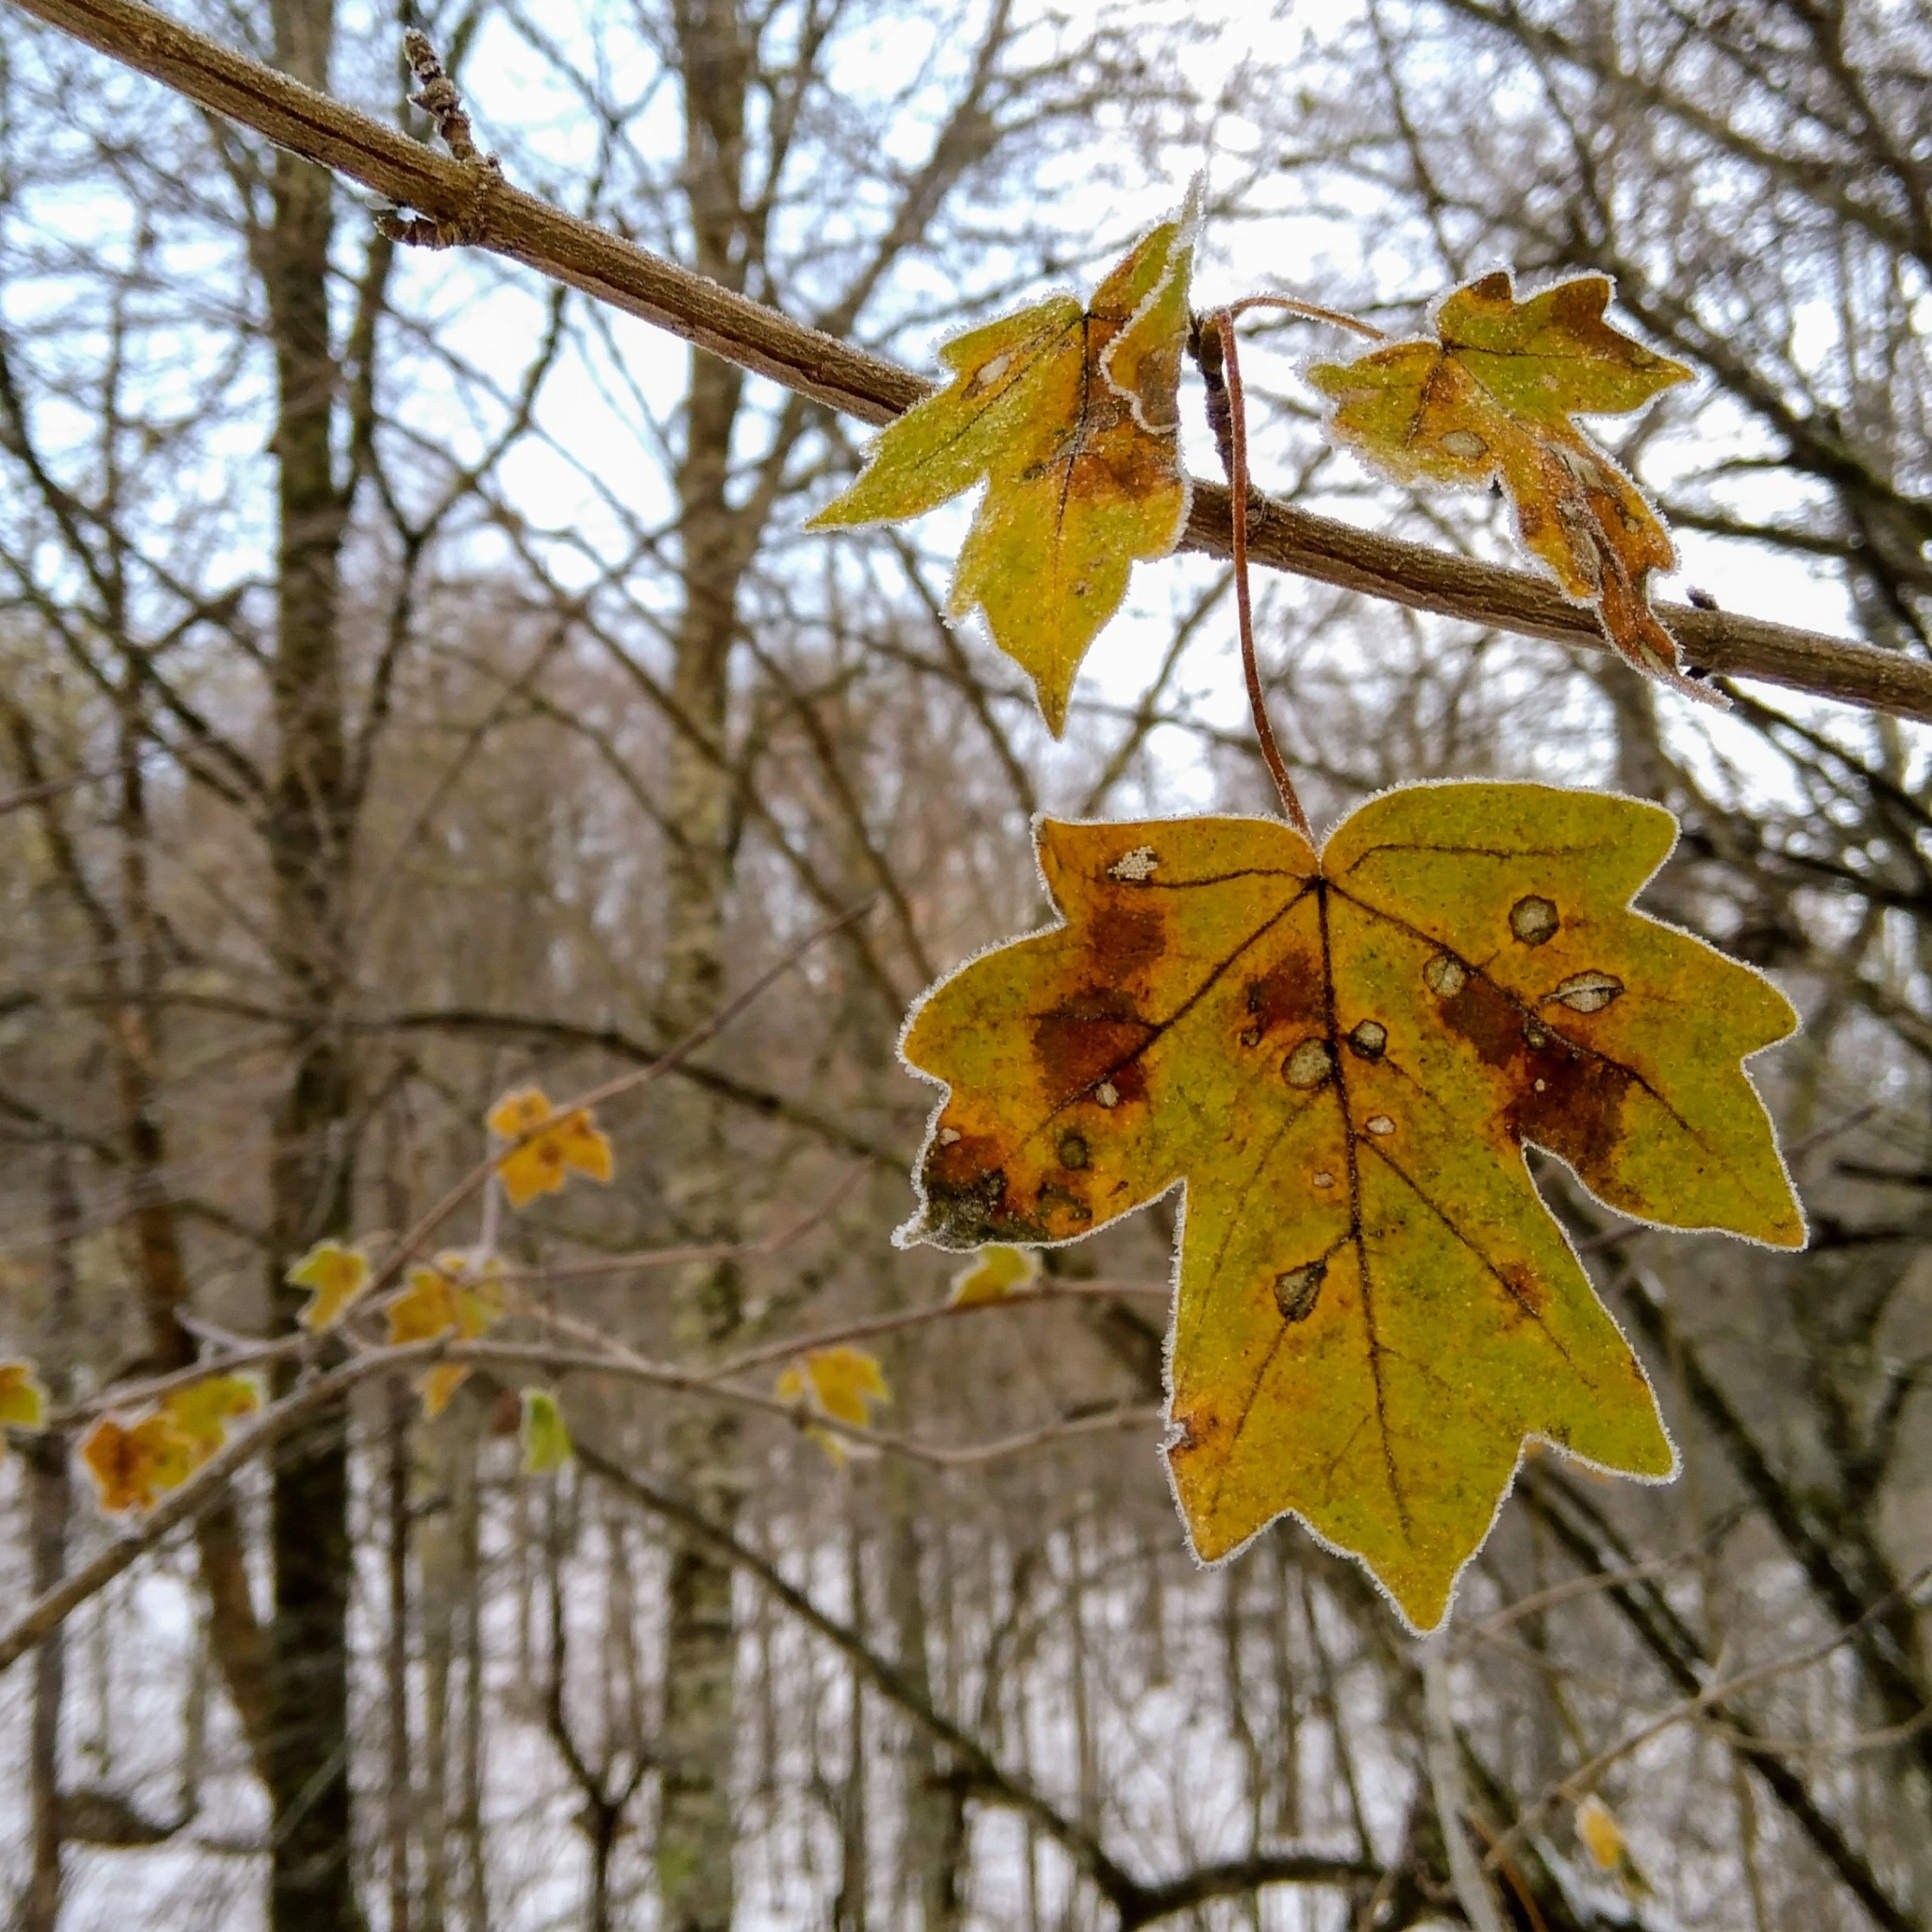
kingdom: Plantae
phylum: Tracheophyta
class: Magnoliopsida
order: Sapindales
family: Sapindaceae
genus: Acer
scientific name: Acer campestre
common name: Field maple
